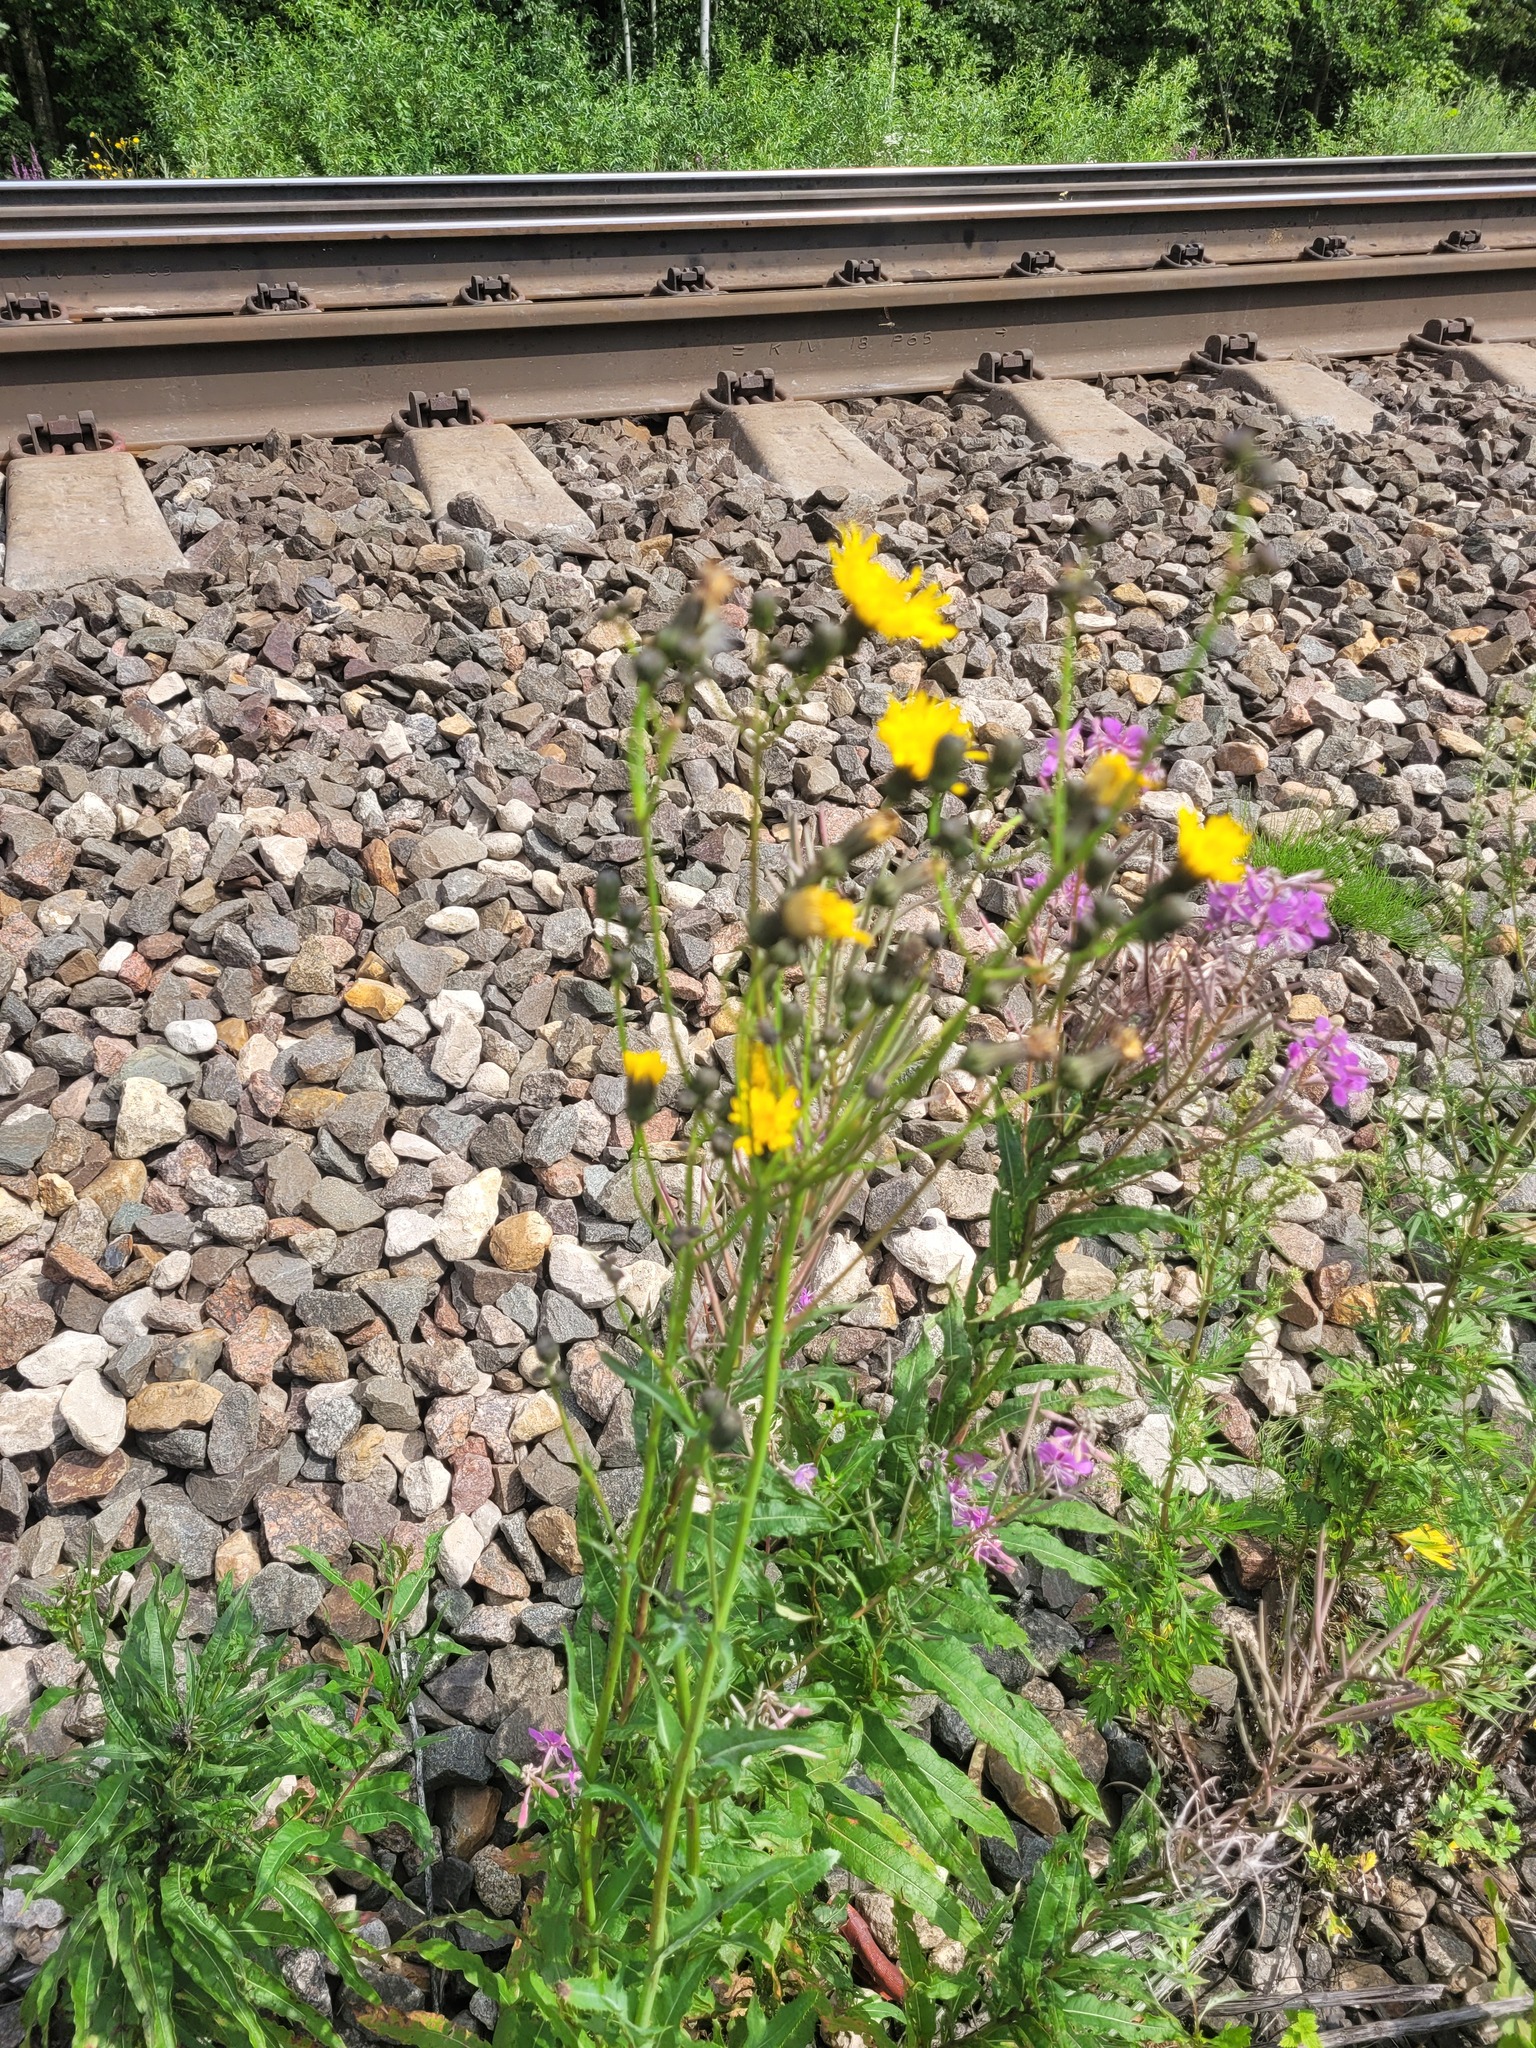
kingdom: Plantae
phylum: Tracheophyta
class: Magnoliopsida
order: Asterales
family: Asteraceae
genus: Sonchus
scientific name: Sonchus arvensis
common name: Perennial sow-thistle
